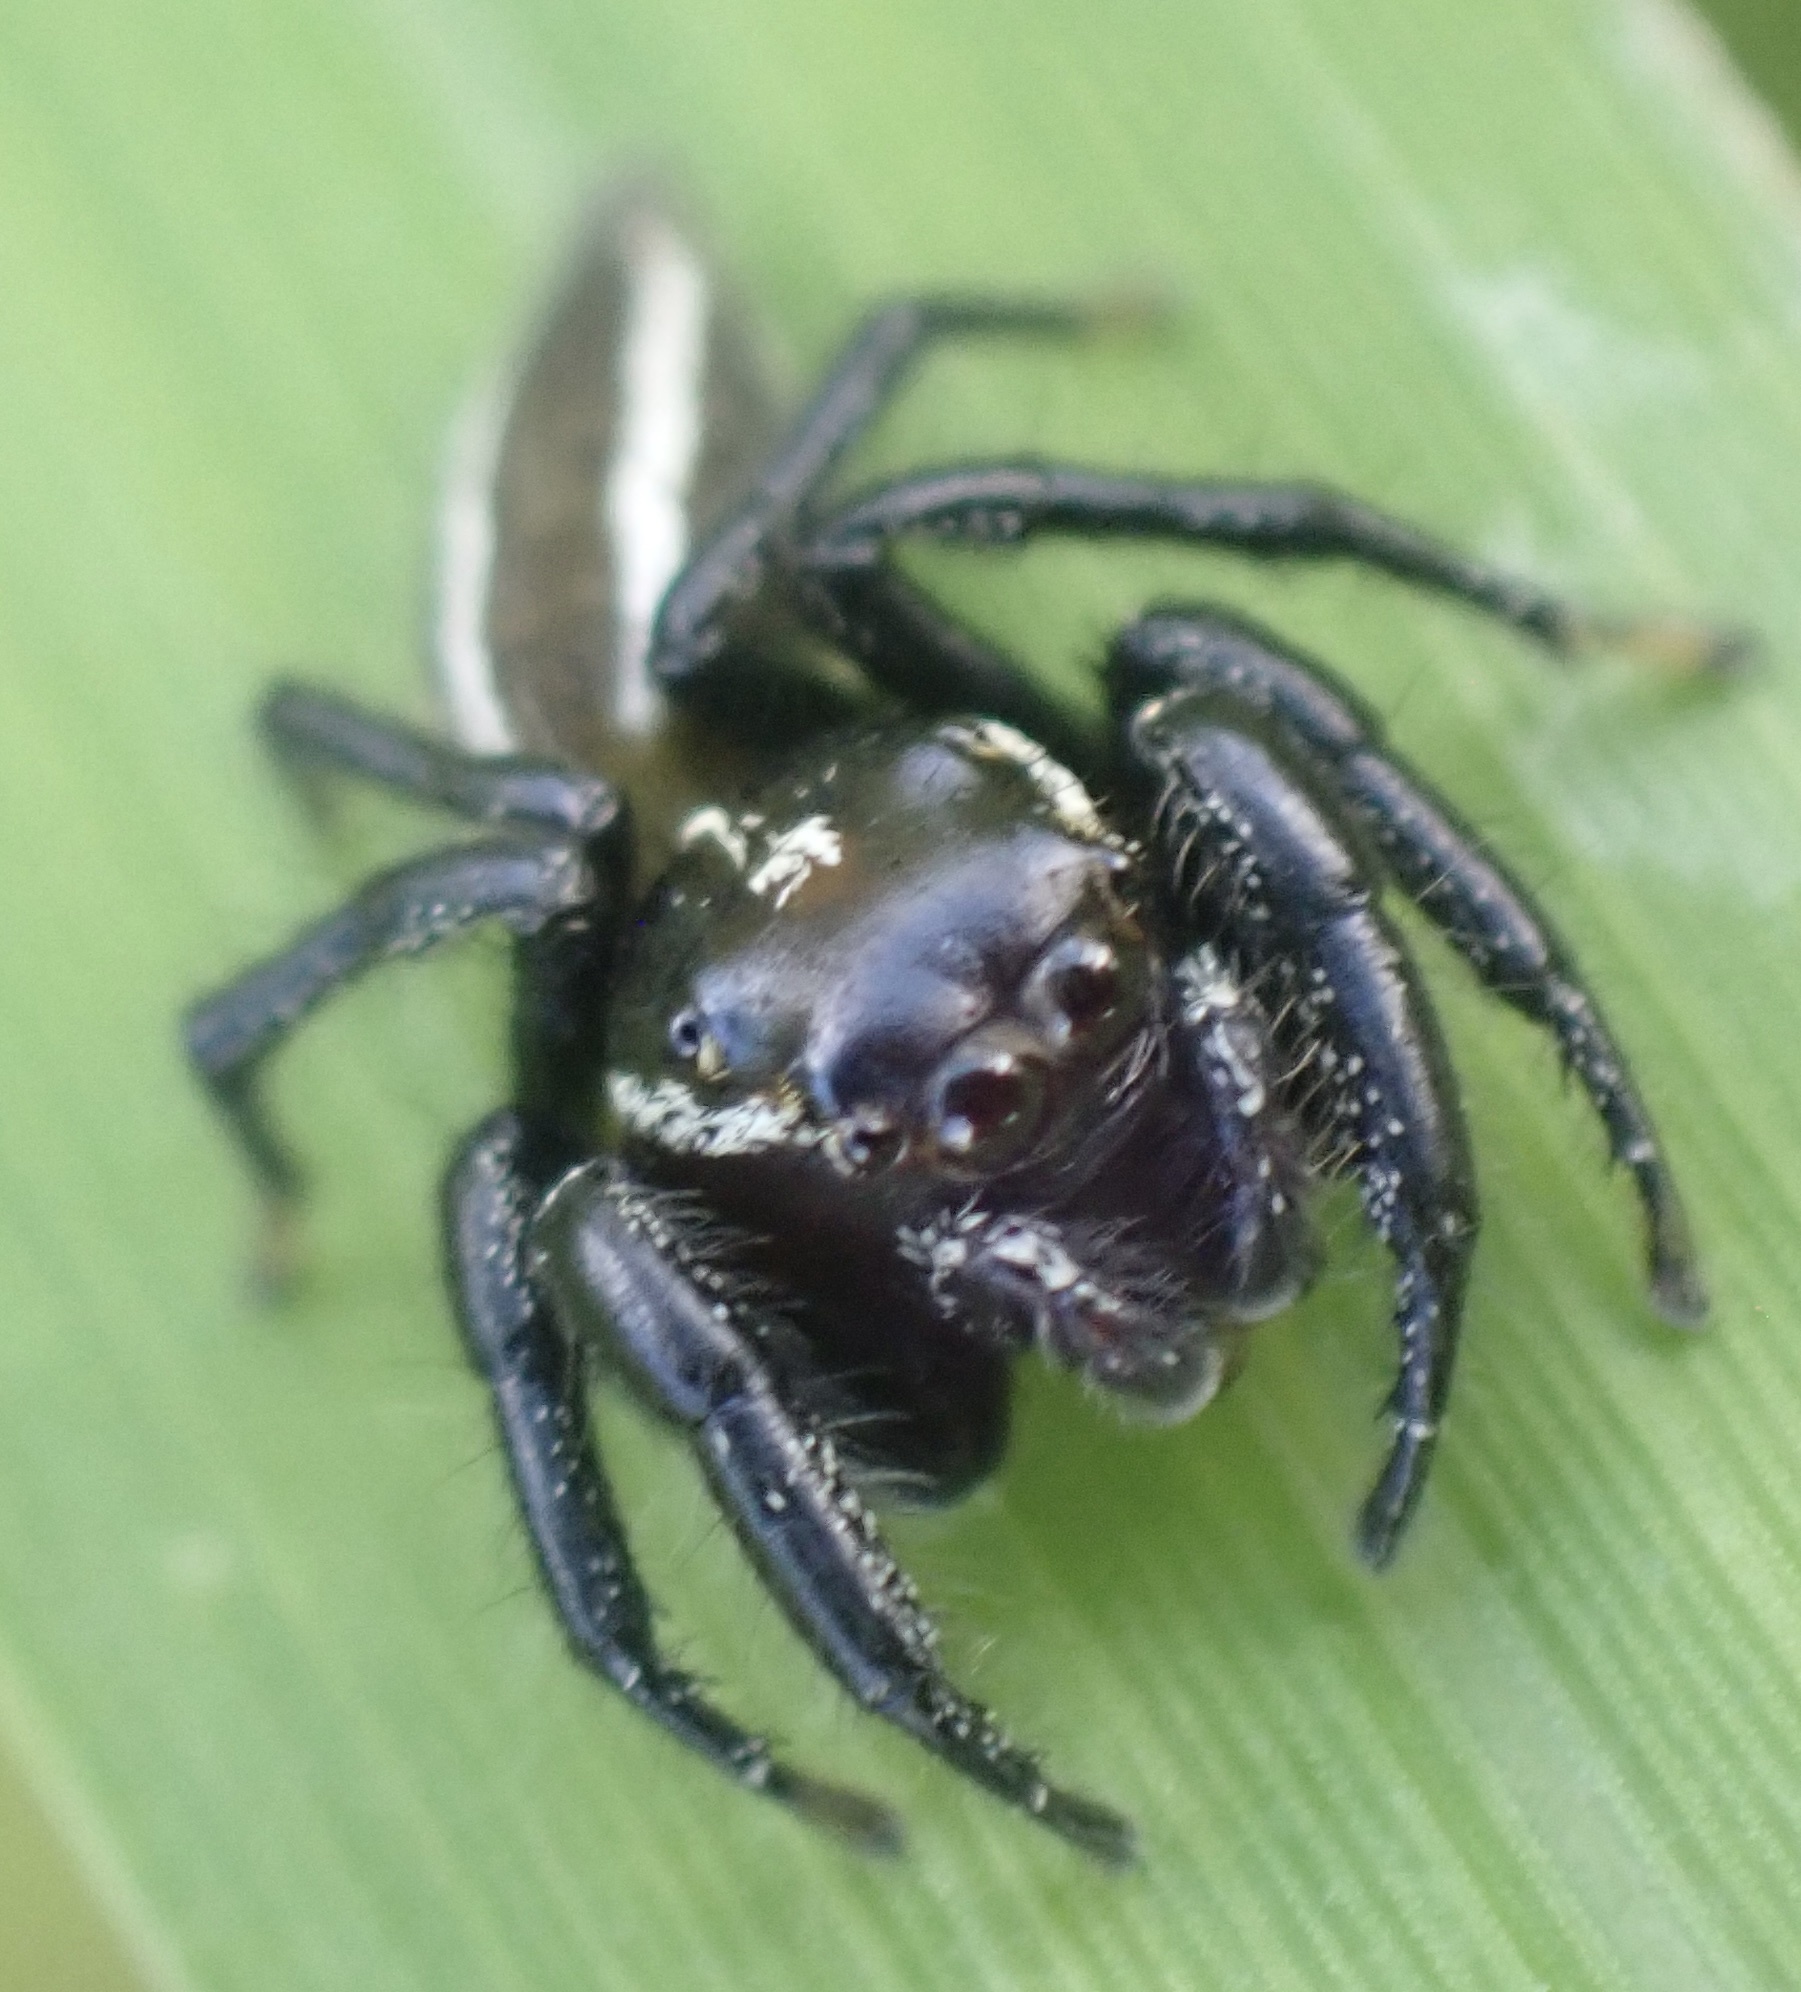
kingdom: Animalia
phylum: Arthropoda
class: Arachnida
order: Araneae
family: Salticidae
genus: Colonus
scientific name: Colonus puerperus
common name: Jumping spiders
